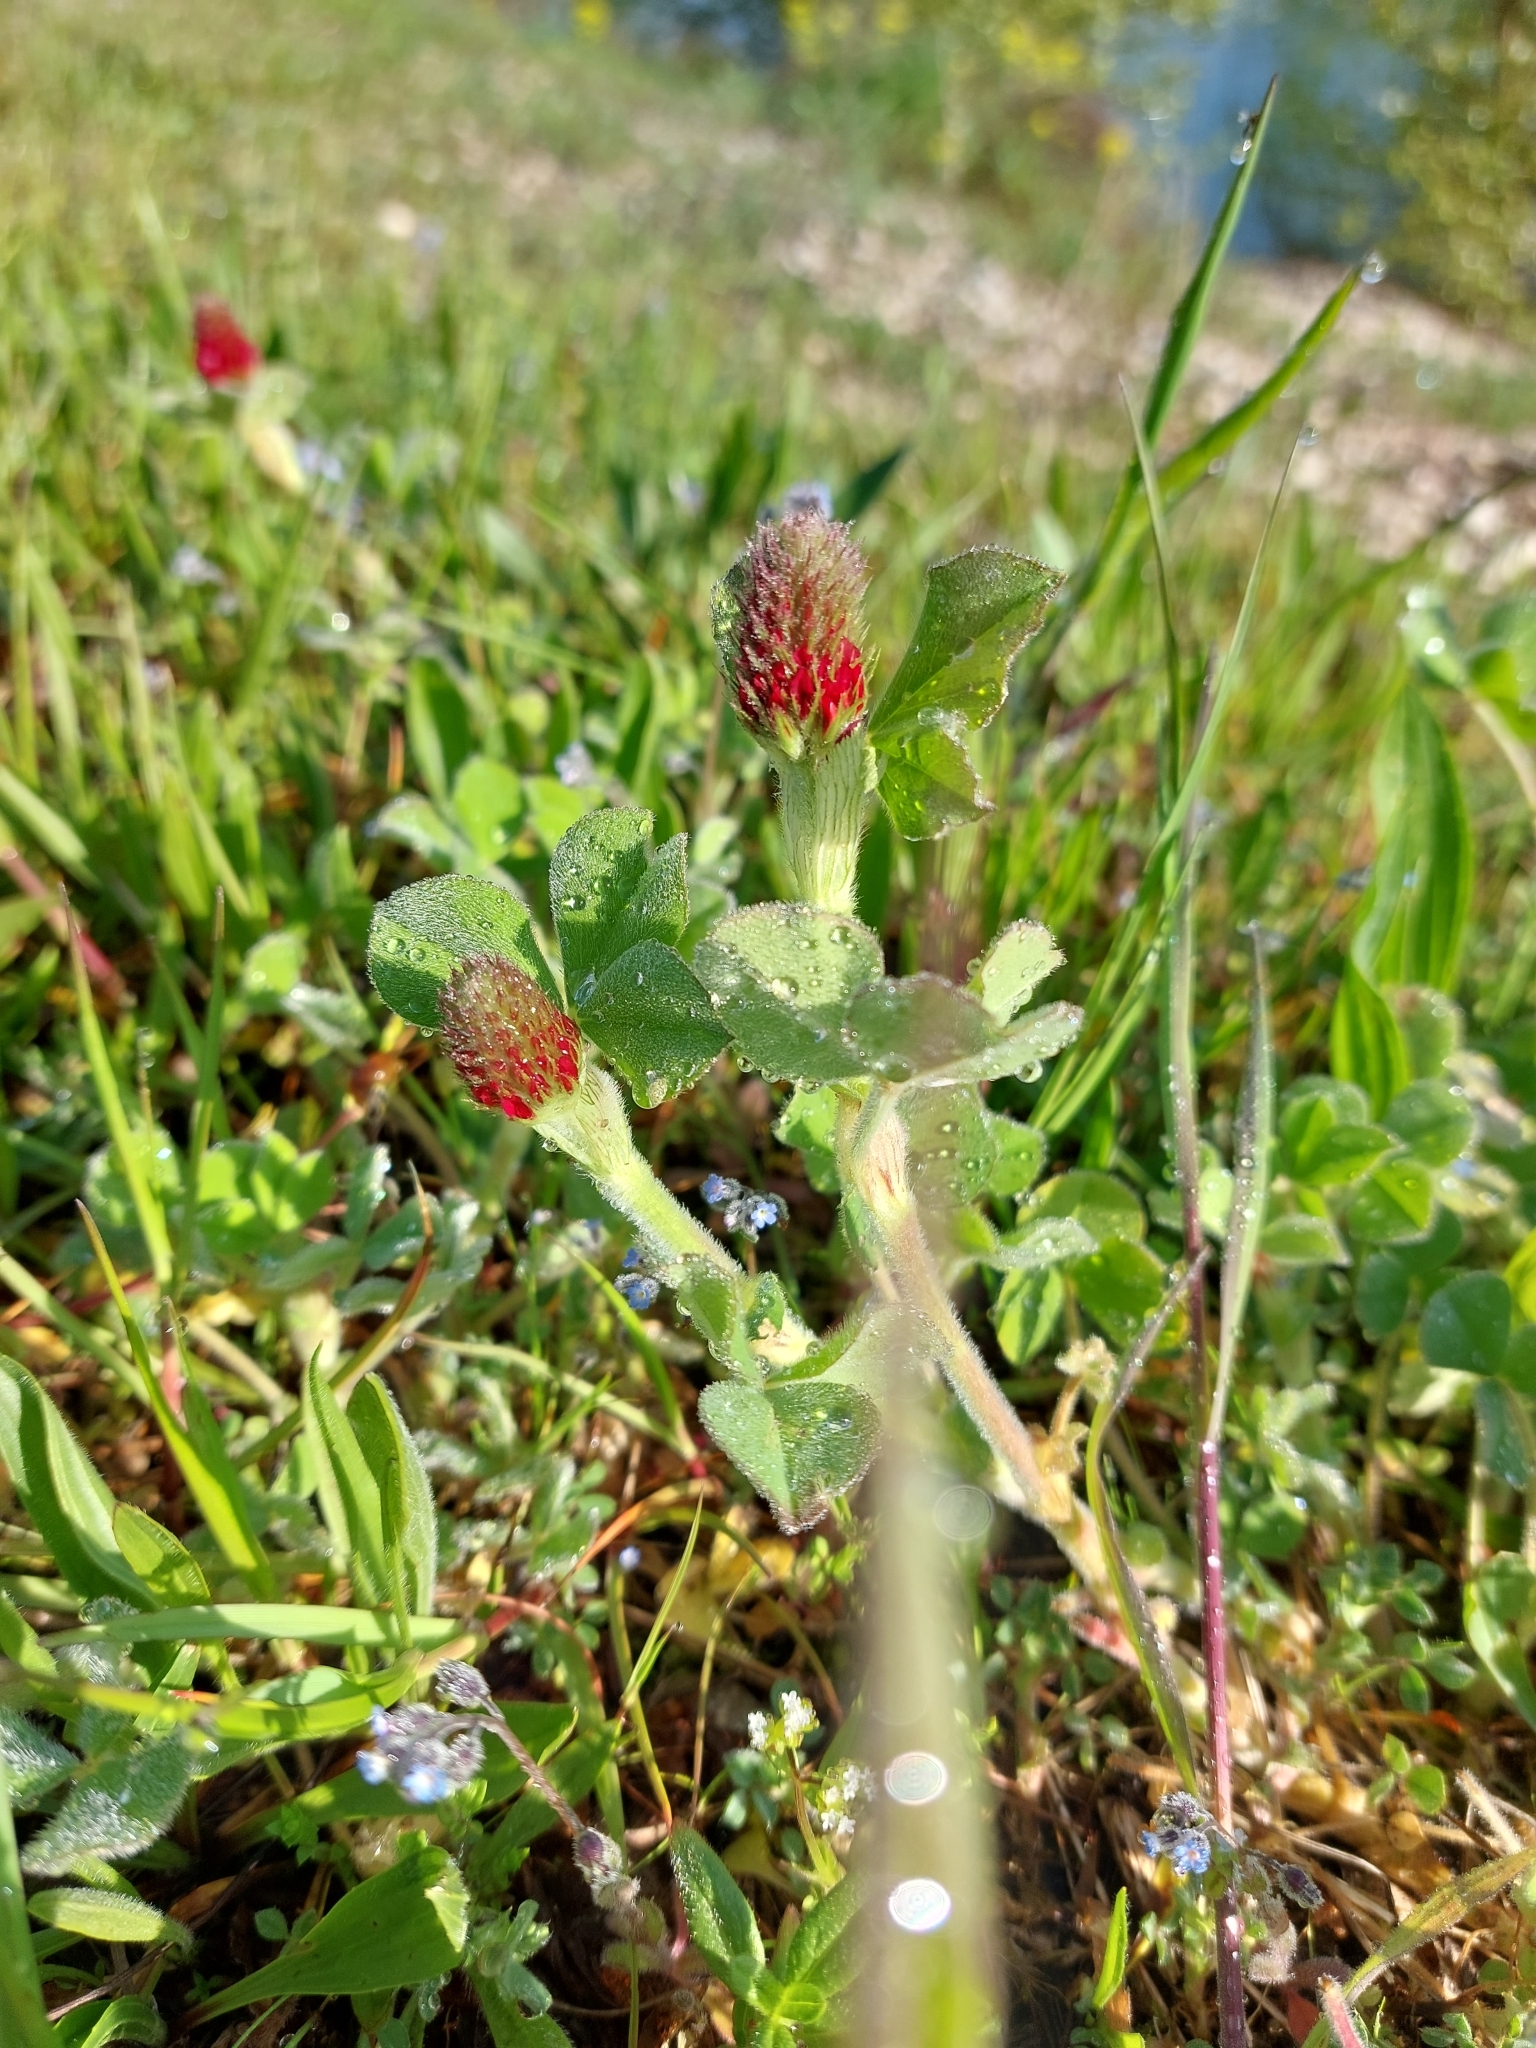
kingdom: Plantae
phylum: Tracheophyta
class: Magnoliopsida
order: Fabales
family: Fabaceae
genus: Trifolium
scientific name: Trifolium incarnatum
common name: Crimson clover
